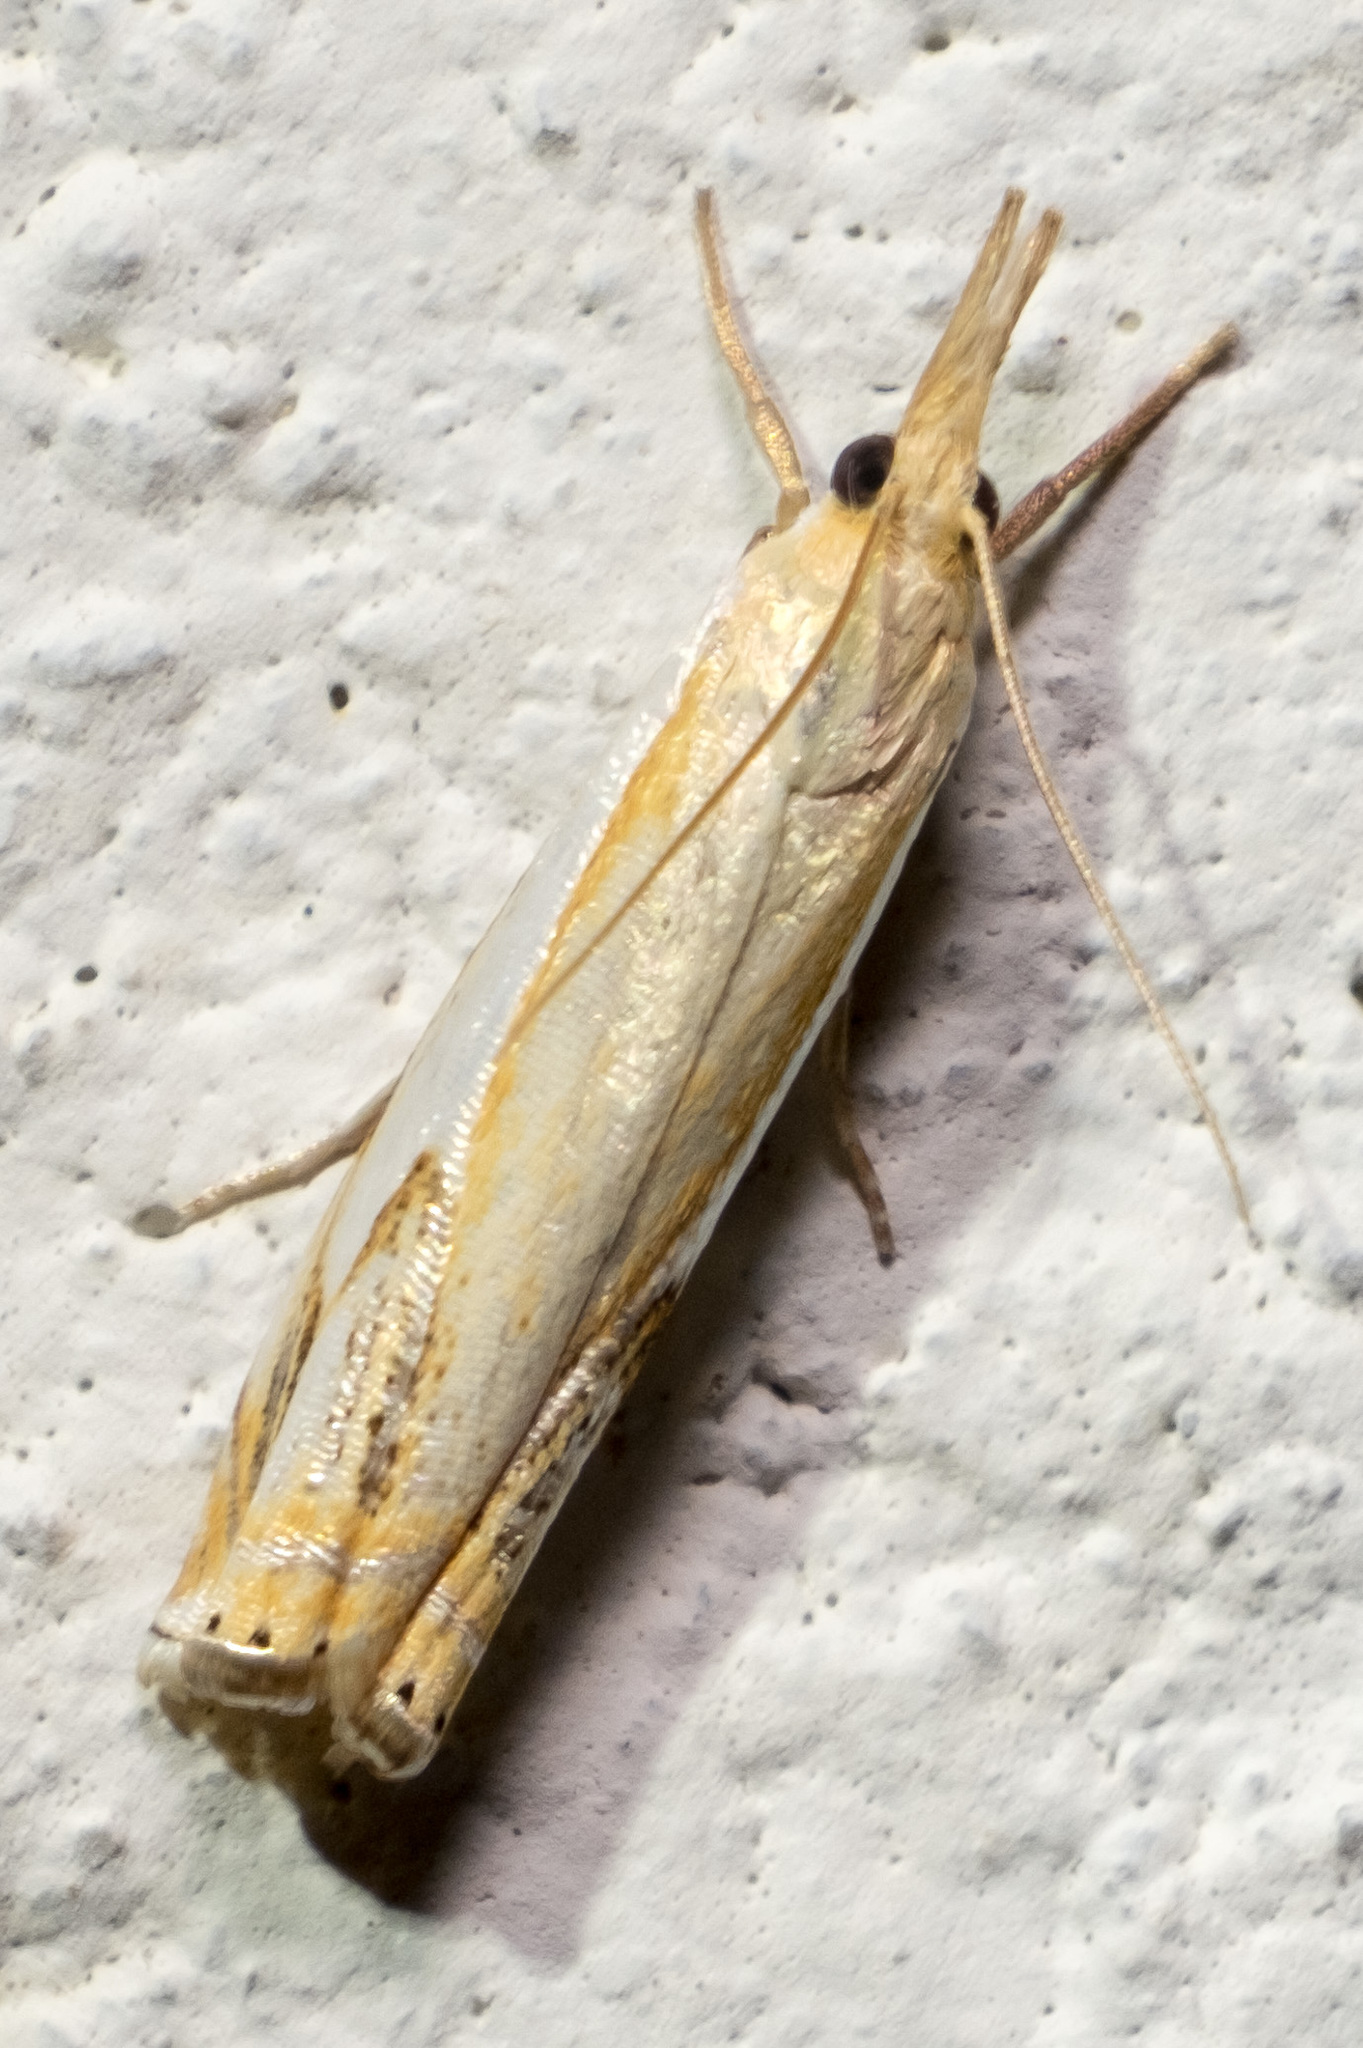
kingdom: Animalia
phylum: Arthropoda
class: Insecta
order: Lepidoptera
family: Crambidae
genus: Crambus
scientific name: Crambus agitatellus
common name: Double-banded grass-veneer
